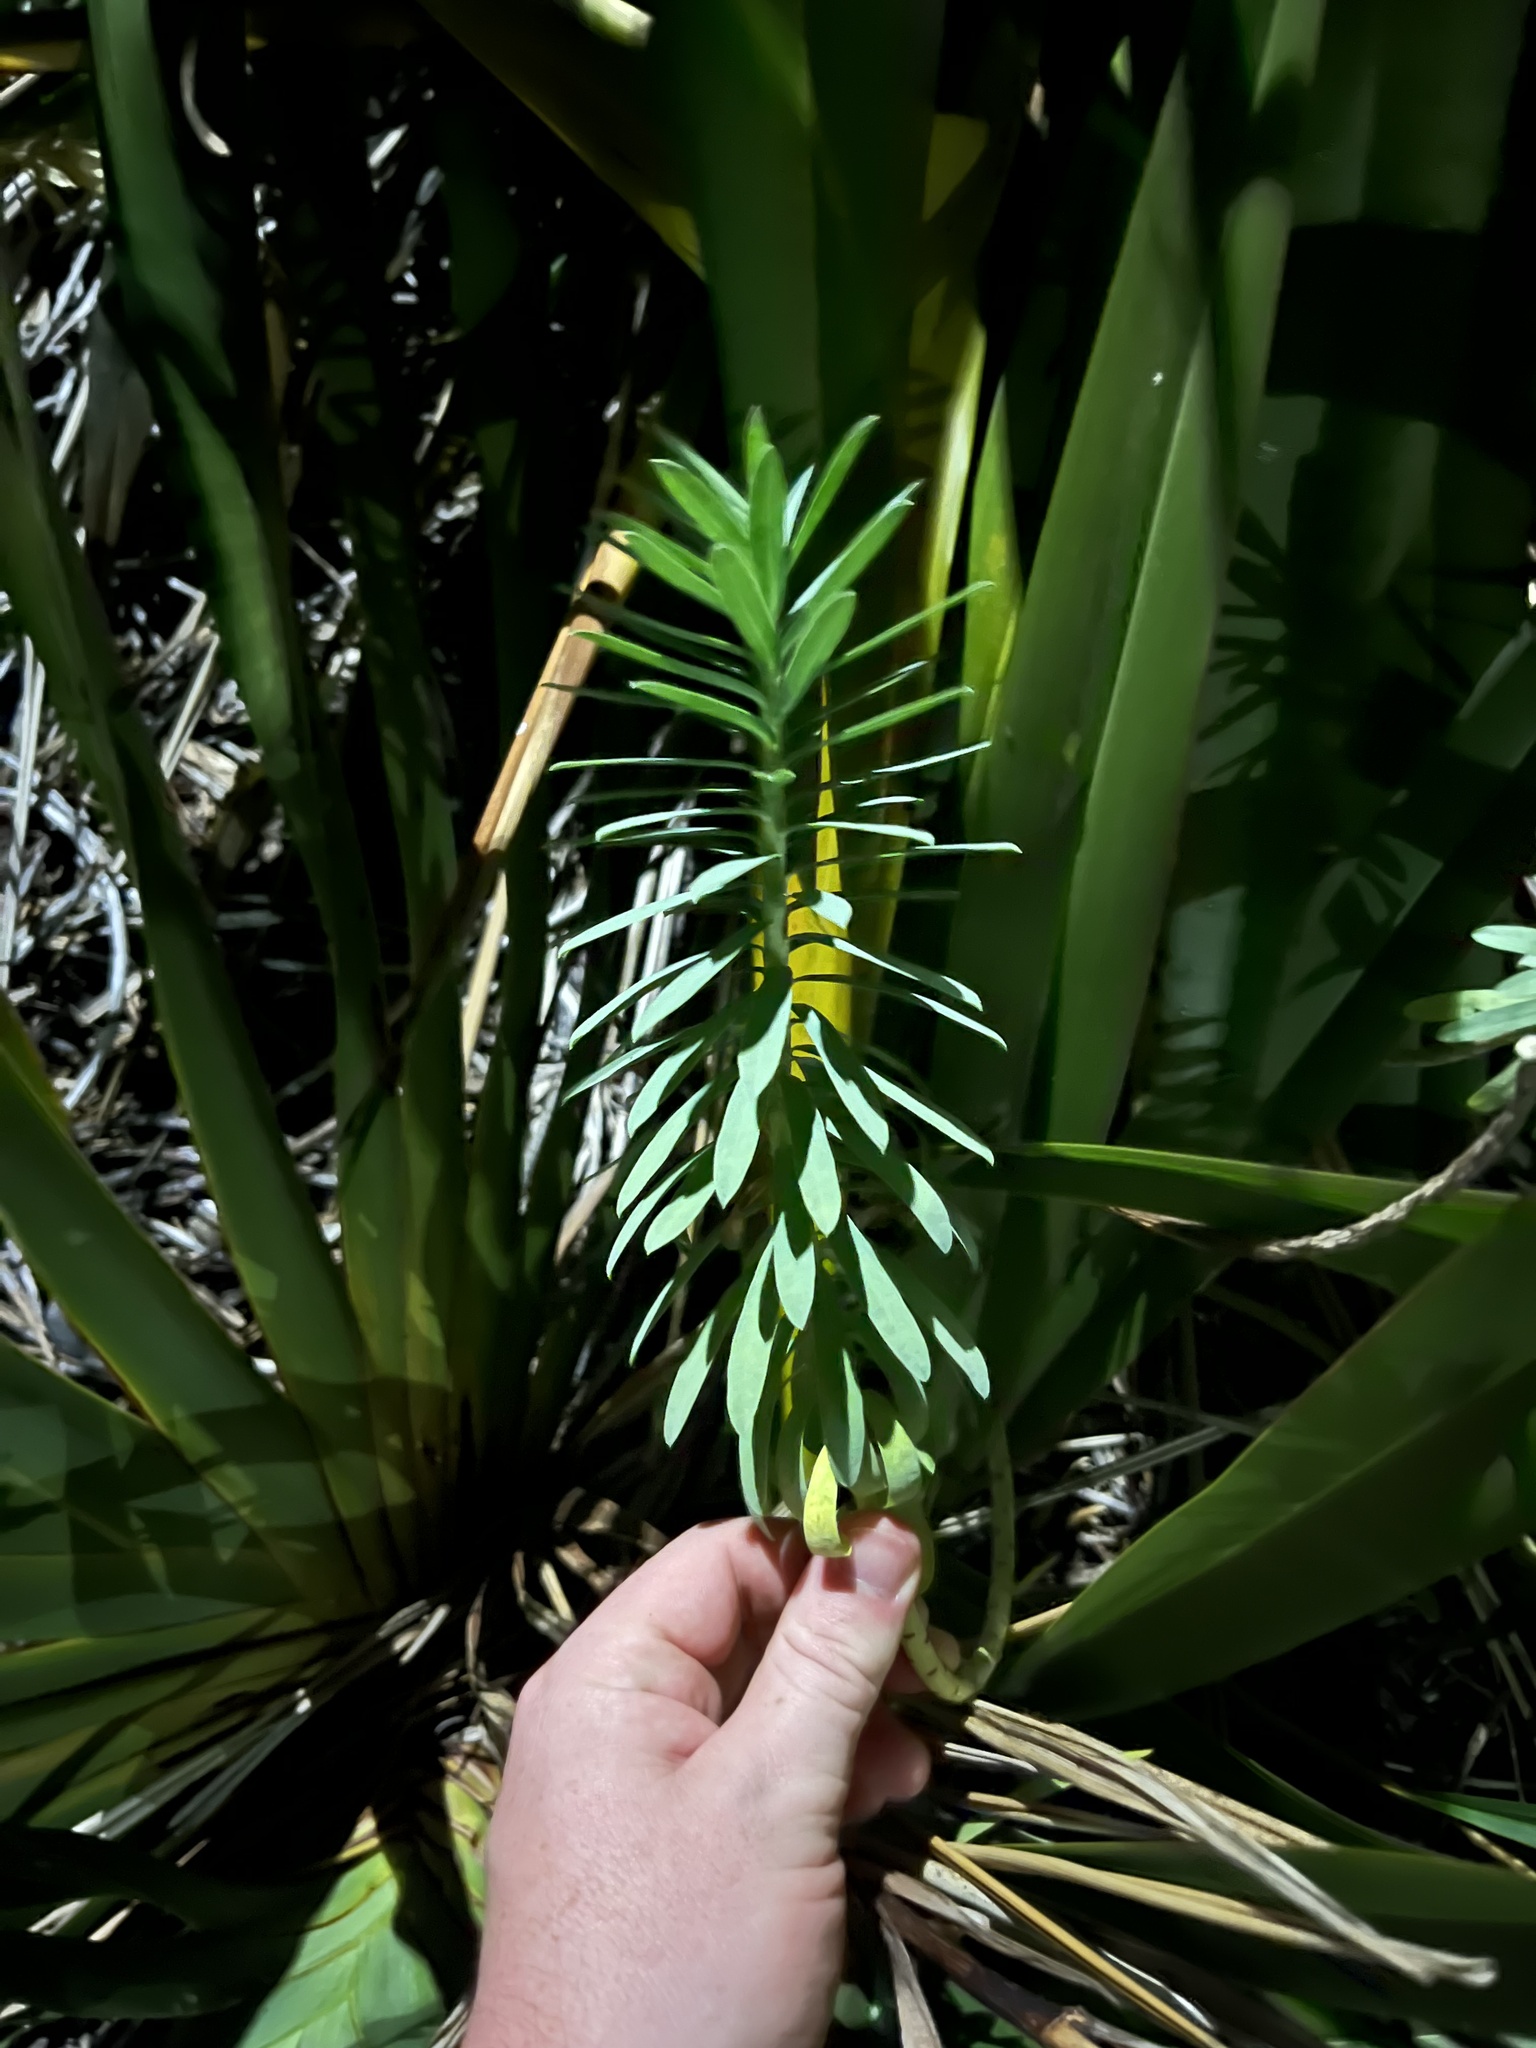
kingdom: Plantae
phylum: Tracheophyta
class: Magnoliopsida
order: Malpighiales
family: Euphorbiaceae
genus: Euphorbia
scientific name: Euphorbia glauca
